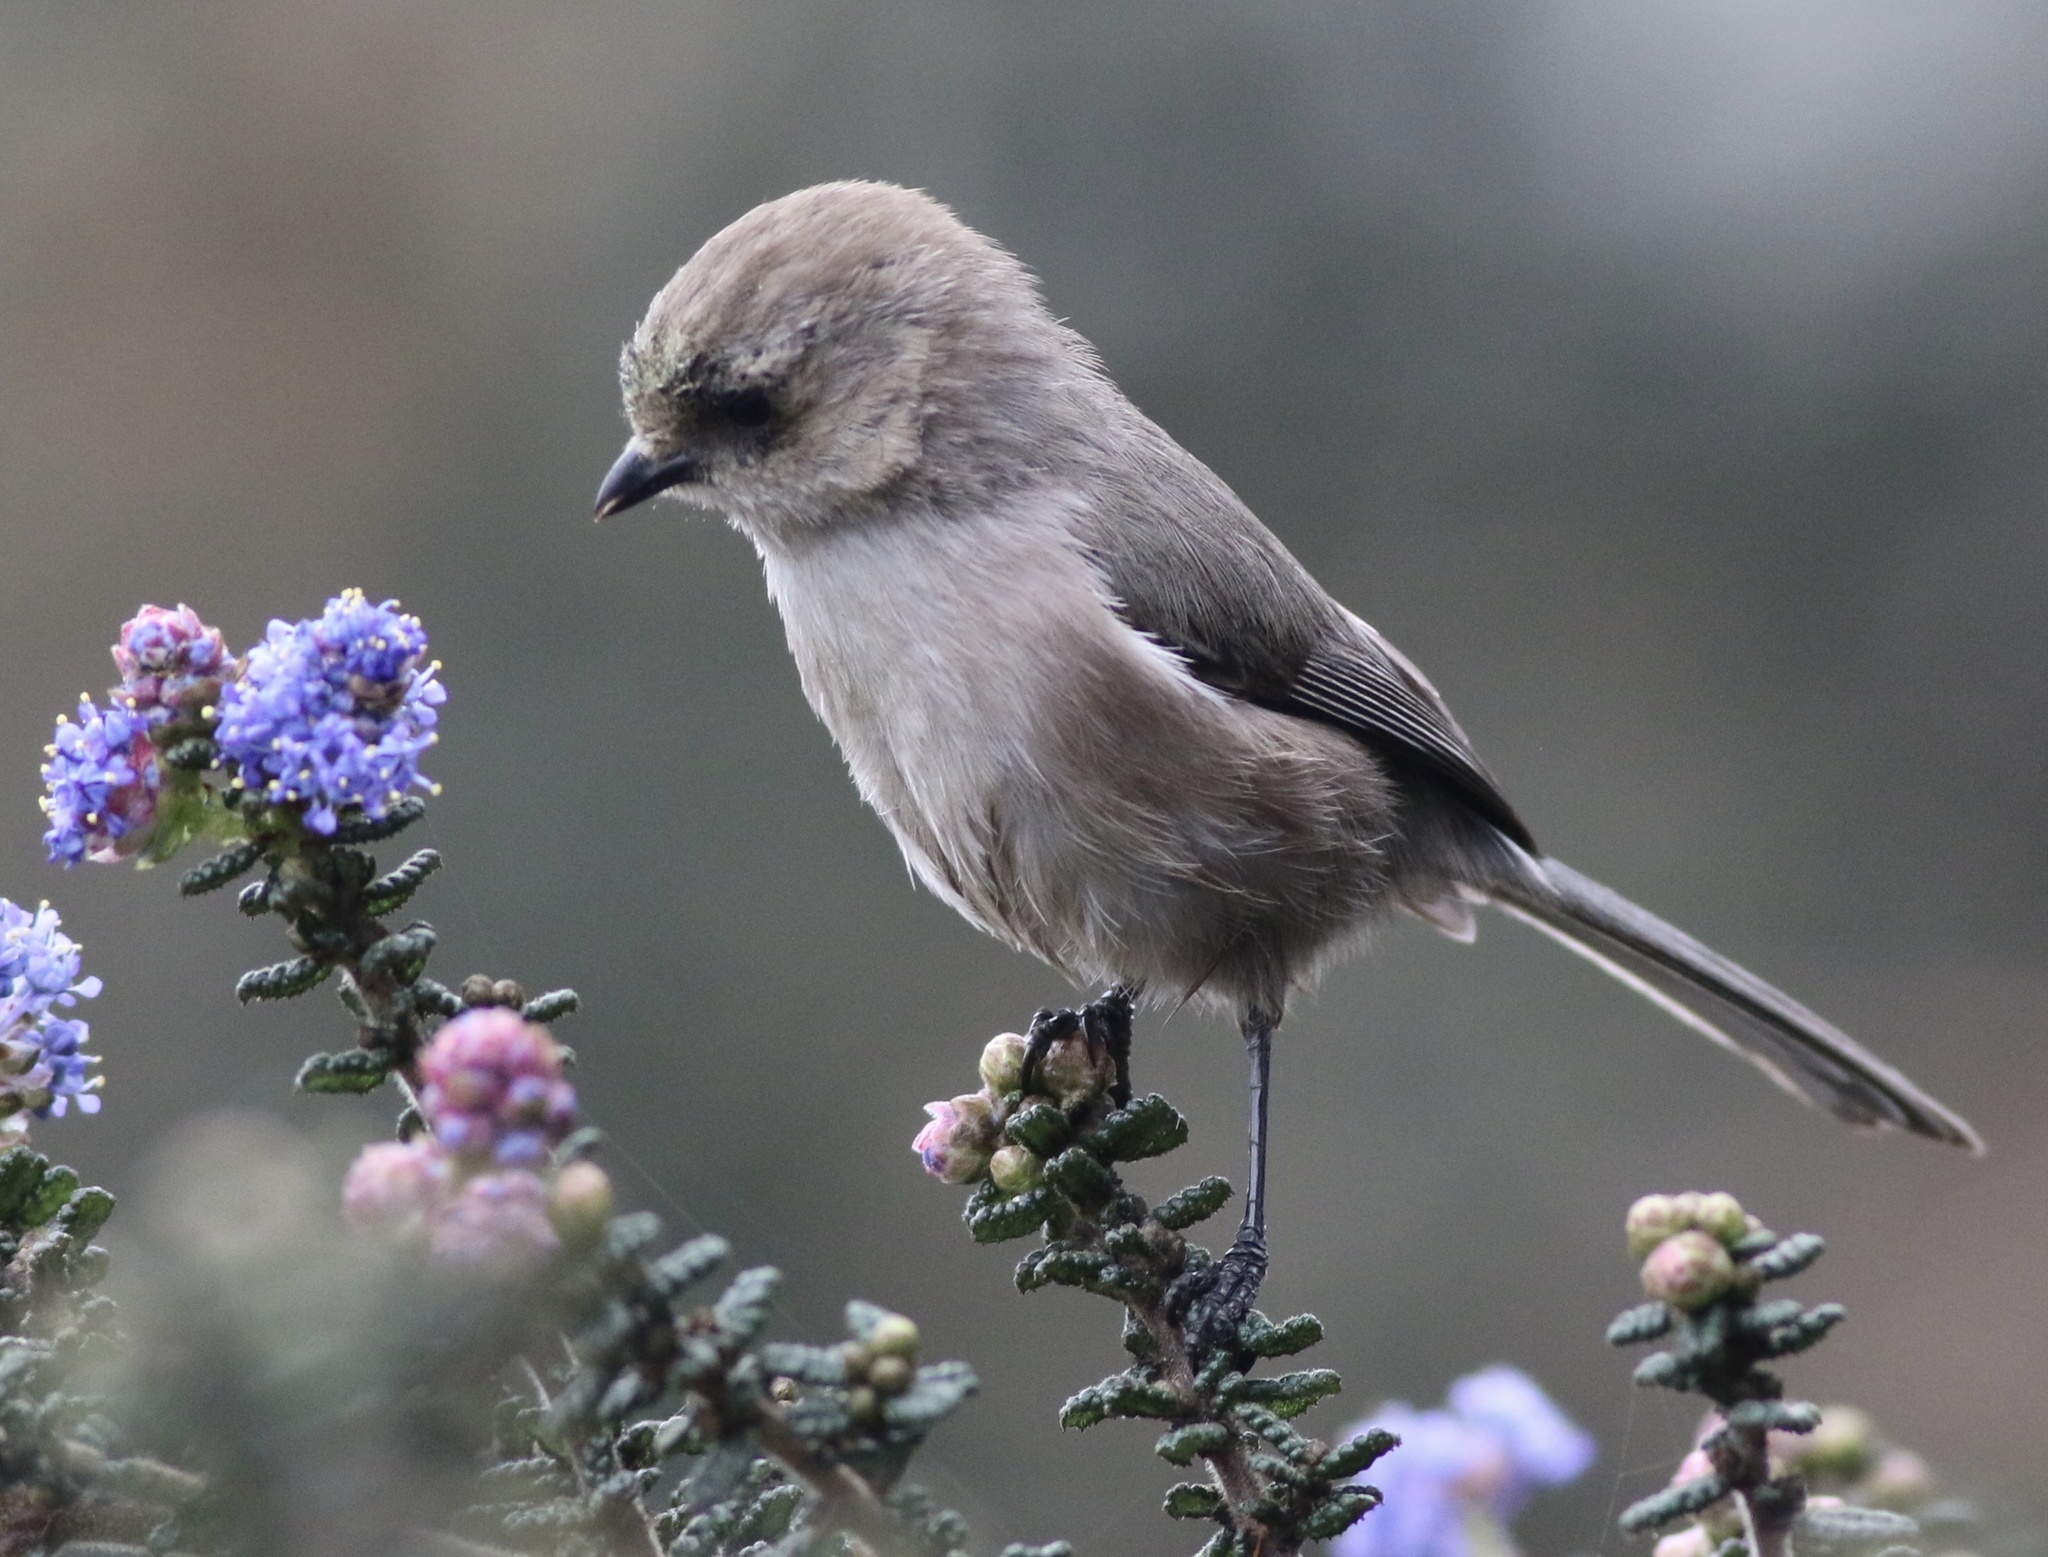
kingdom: Animalia
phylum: Chordata
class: Aves
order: Passeriformes
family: Aegithalidae
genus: Psaltriparus
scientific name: Psaltriparus minimus
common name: American bushtit
